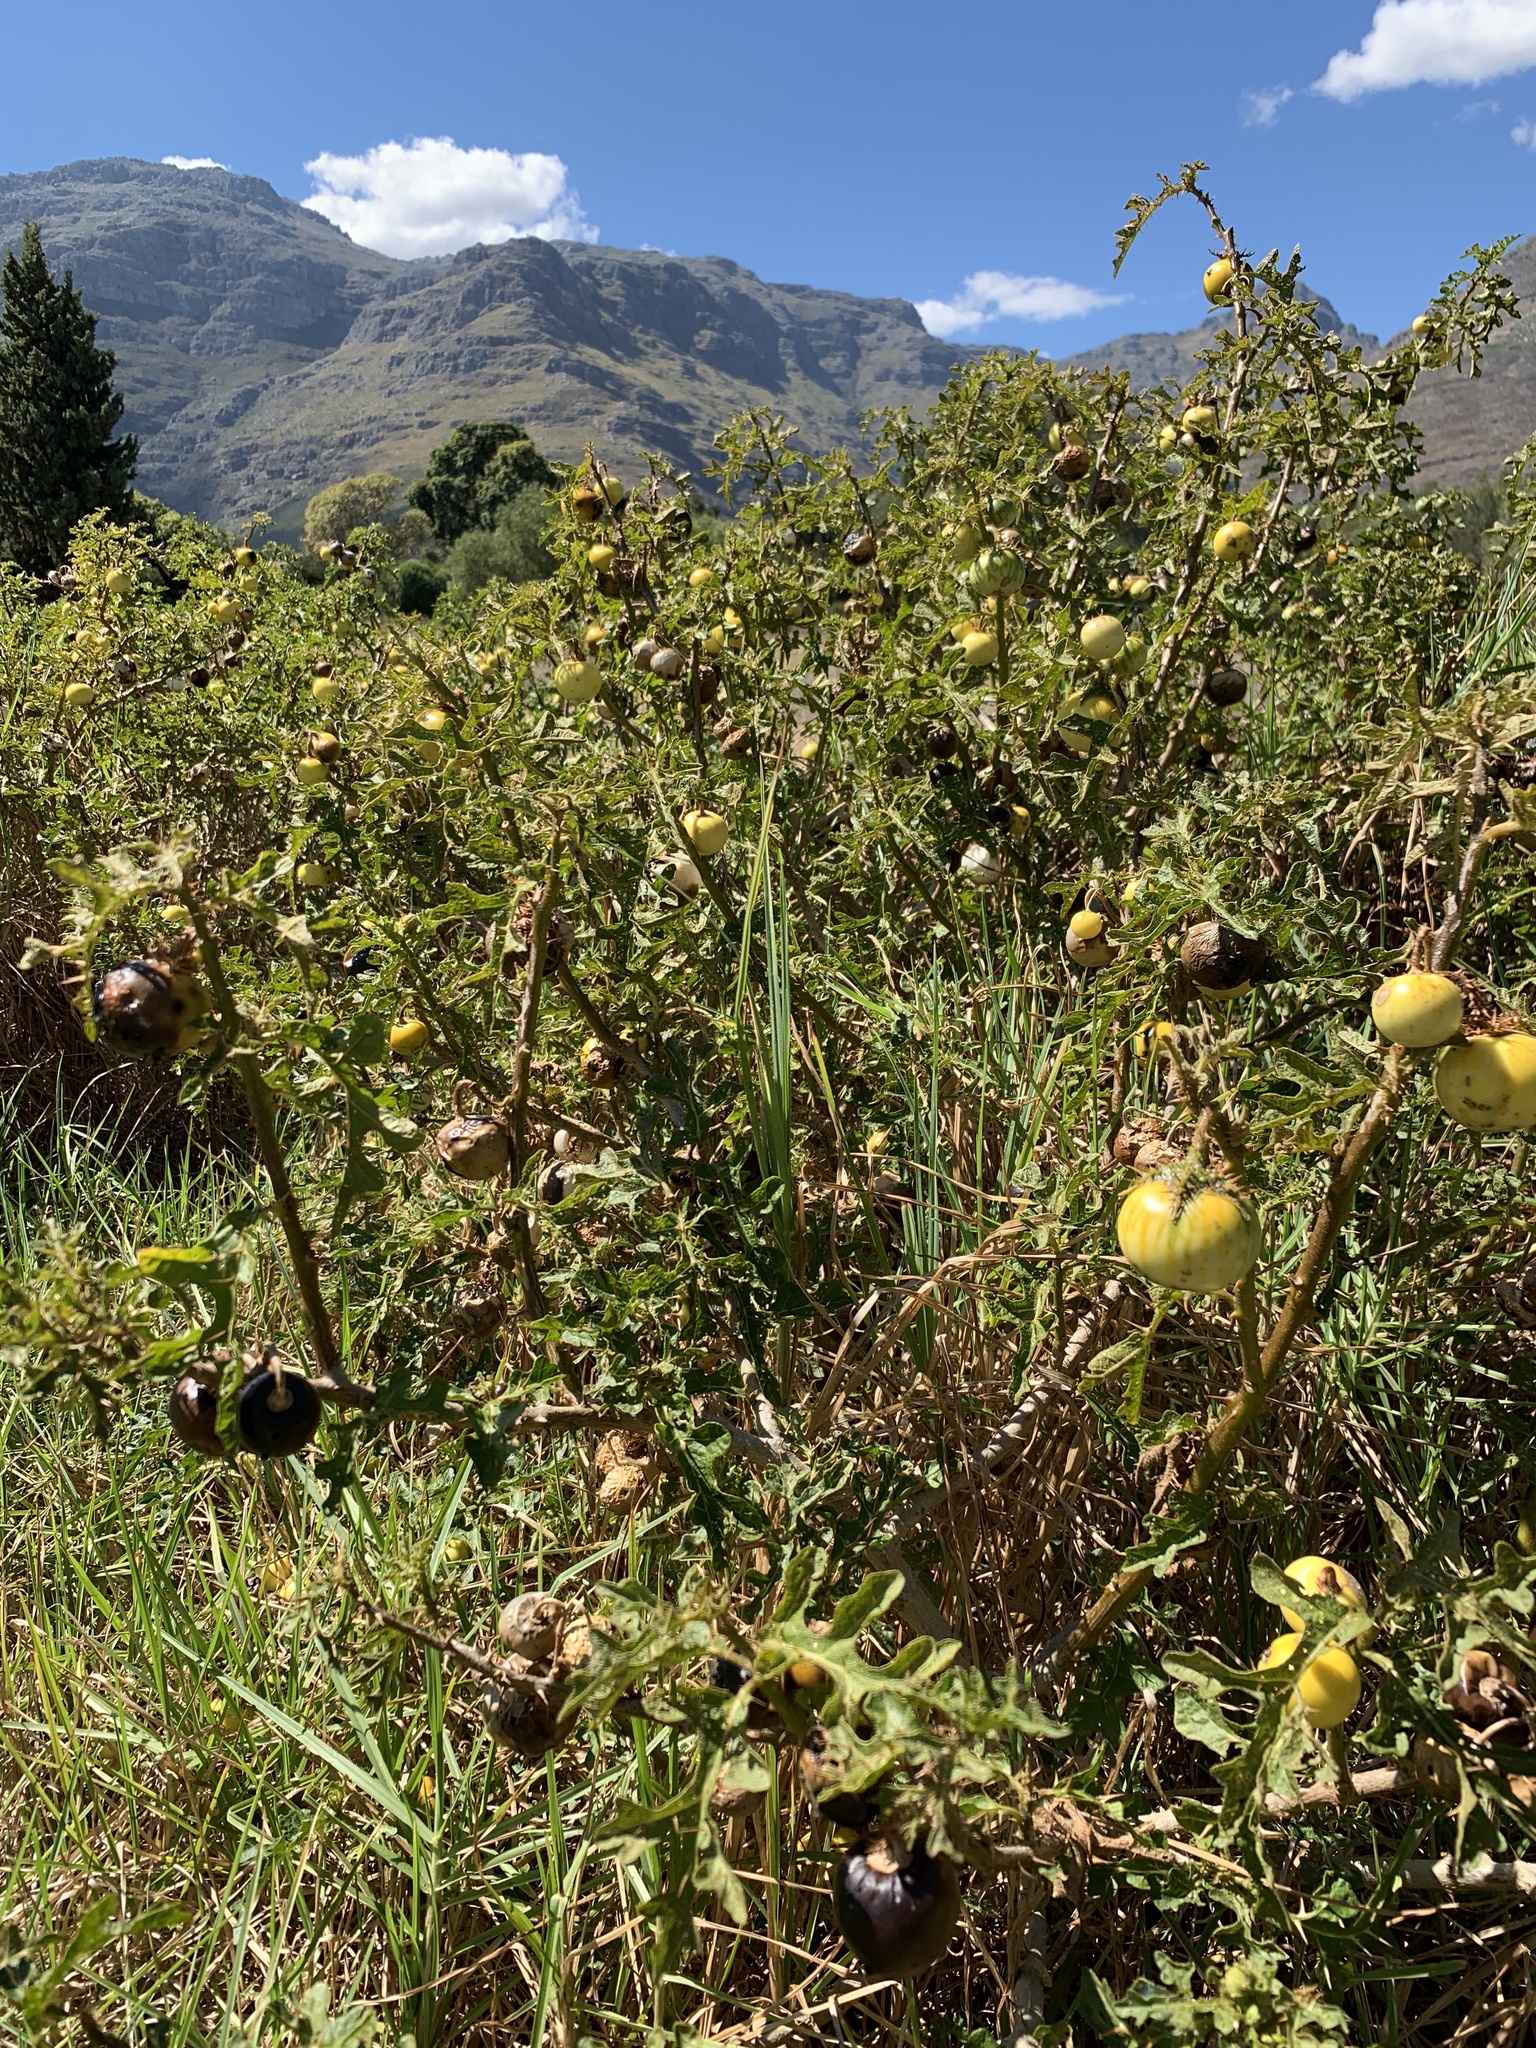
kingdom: Plantae
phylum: Tracheophyta
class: Magnoliopsida
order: Solanales
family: Solanaceae
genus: Solanum
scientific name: Solanum linnaeanum
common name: Nightshade
